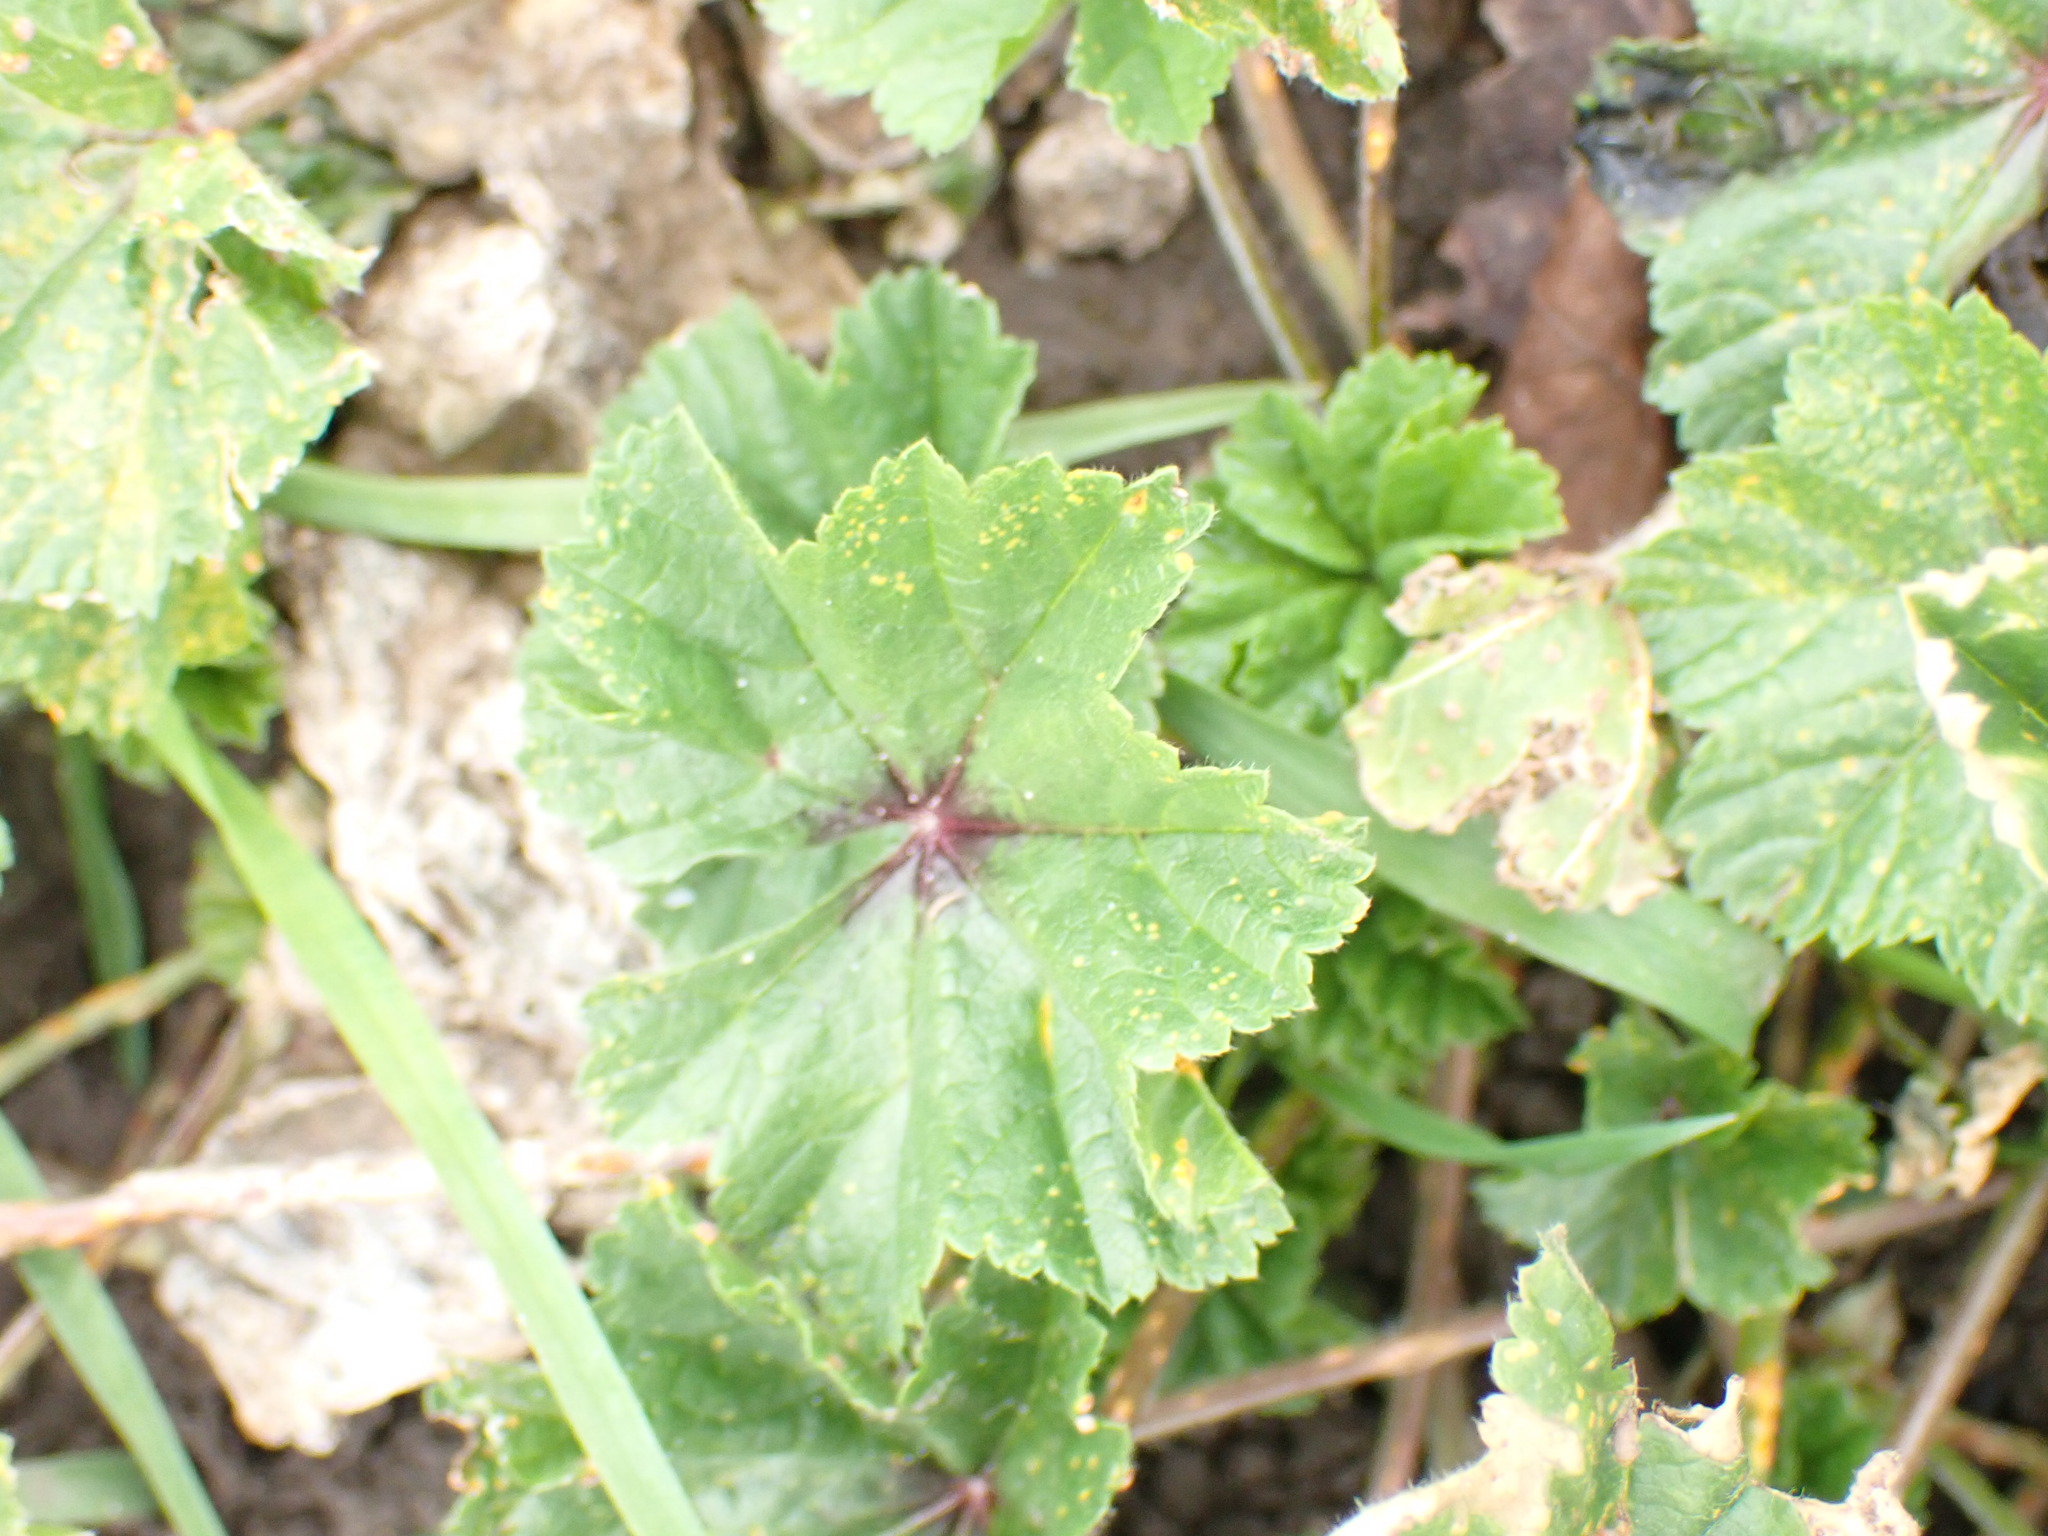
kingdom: Plantae
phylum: Tracheophyta
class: Magnoliopsida
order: Malvales
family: Malvaceae
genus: Malva
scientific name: Malva sylvestris
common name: Common mallow
